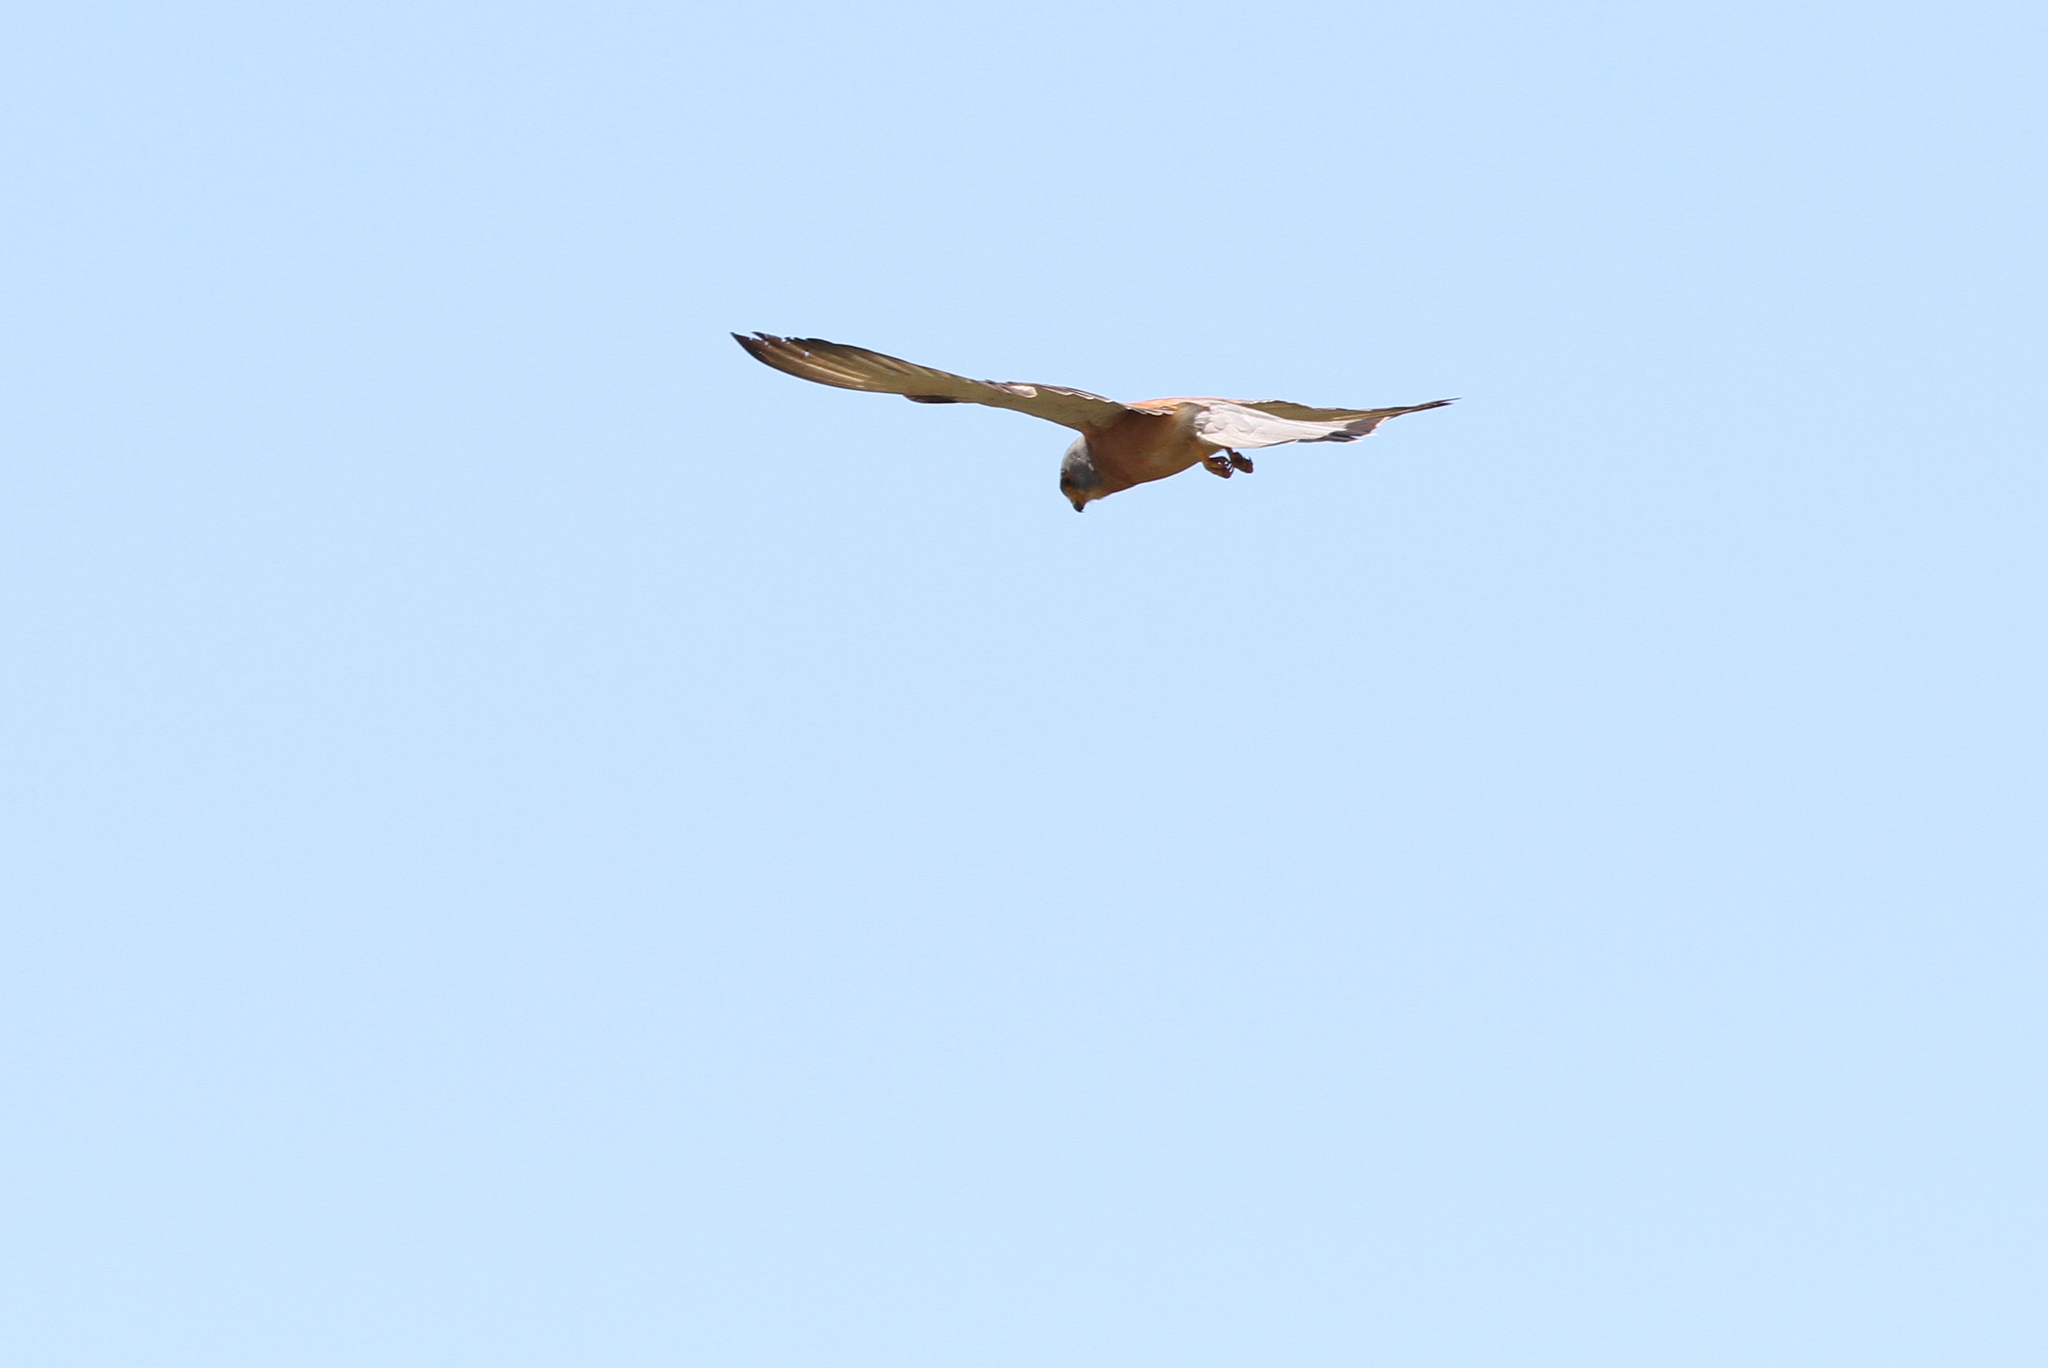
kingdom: Animalia
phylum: Chordata
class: Aves
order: Falconiformes
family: Falconidae
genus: Falco
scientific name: Falco naumanni
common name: Lesser kestrel
